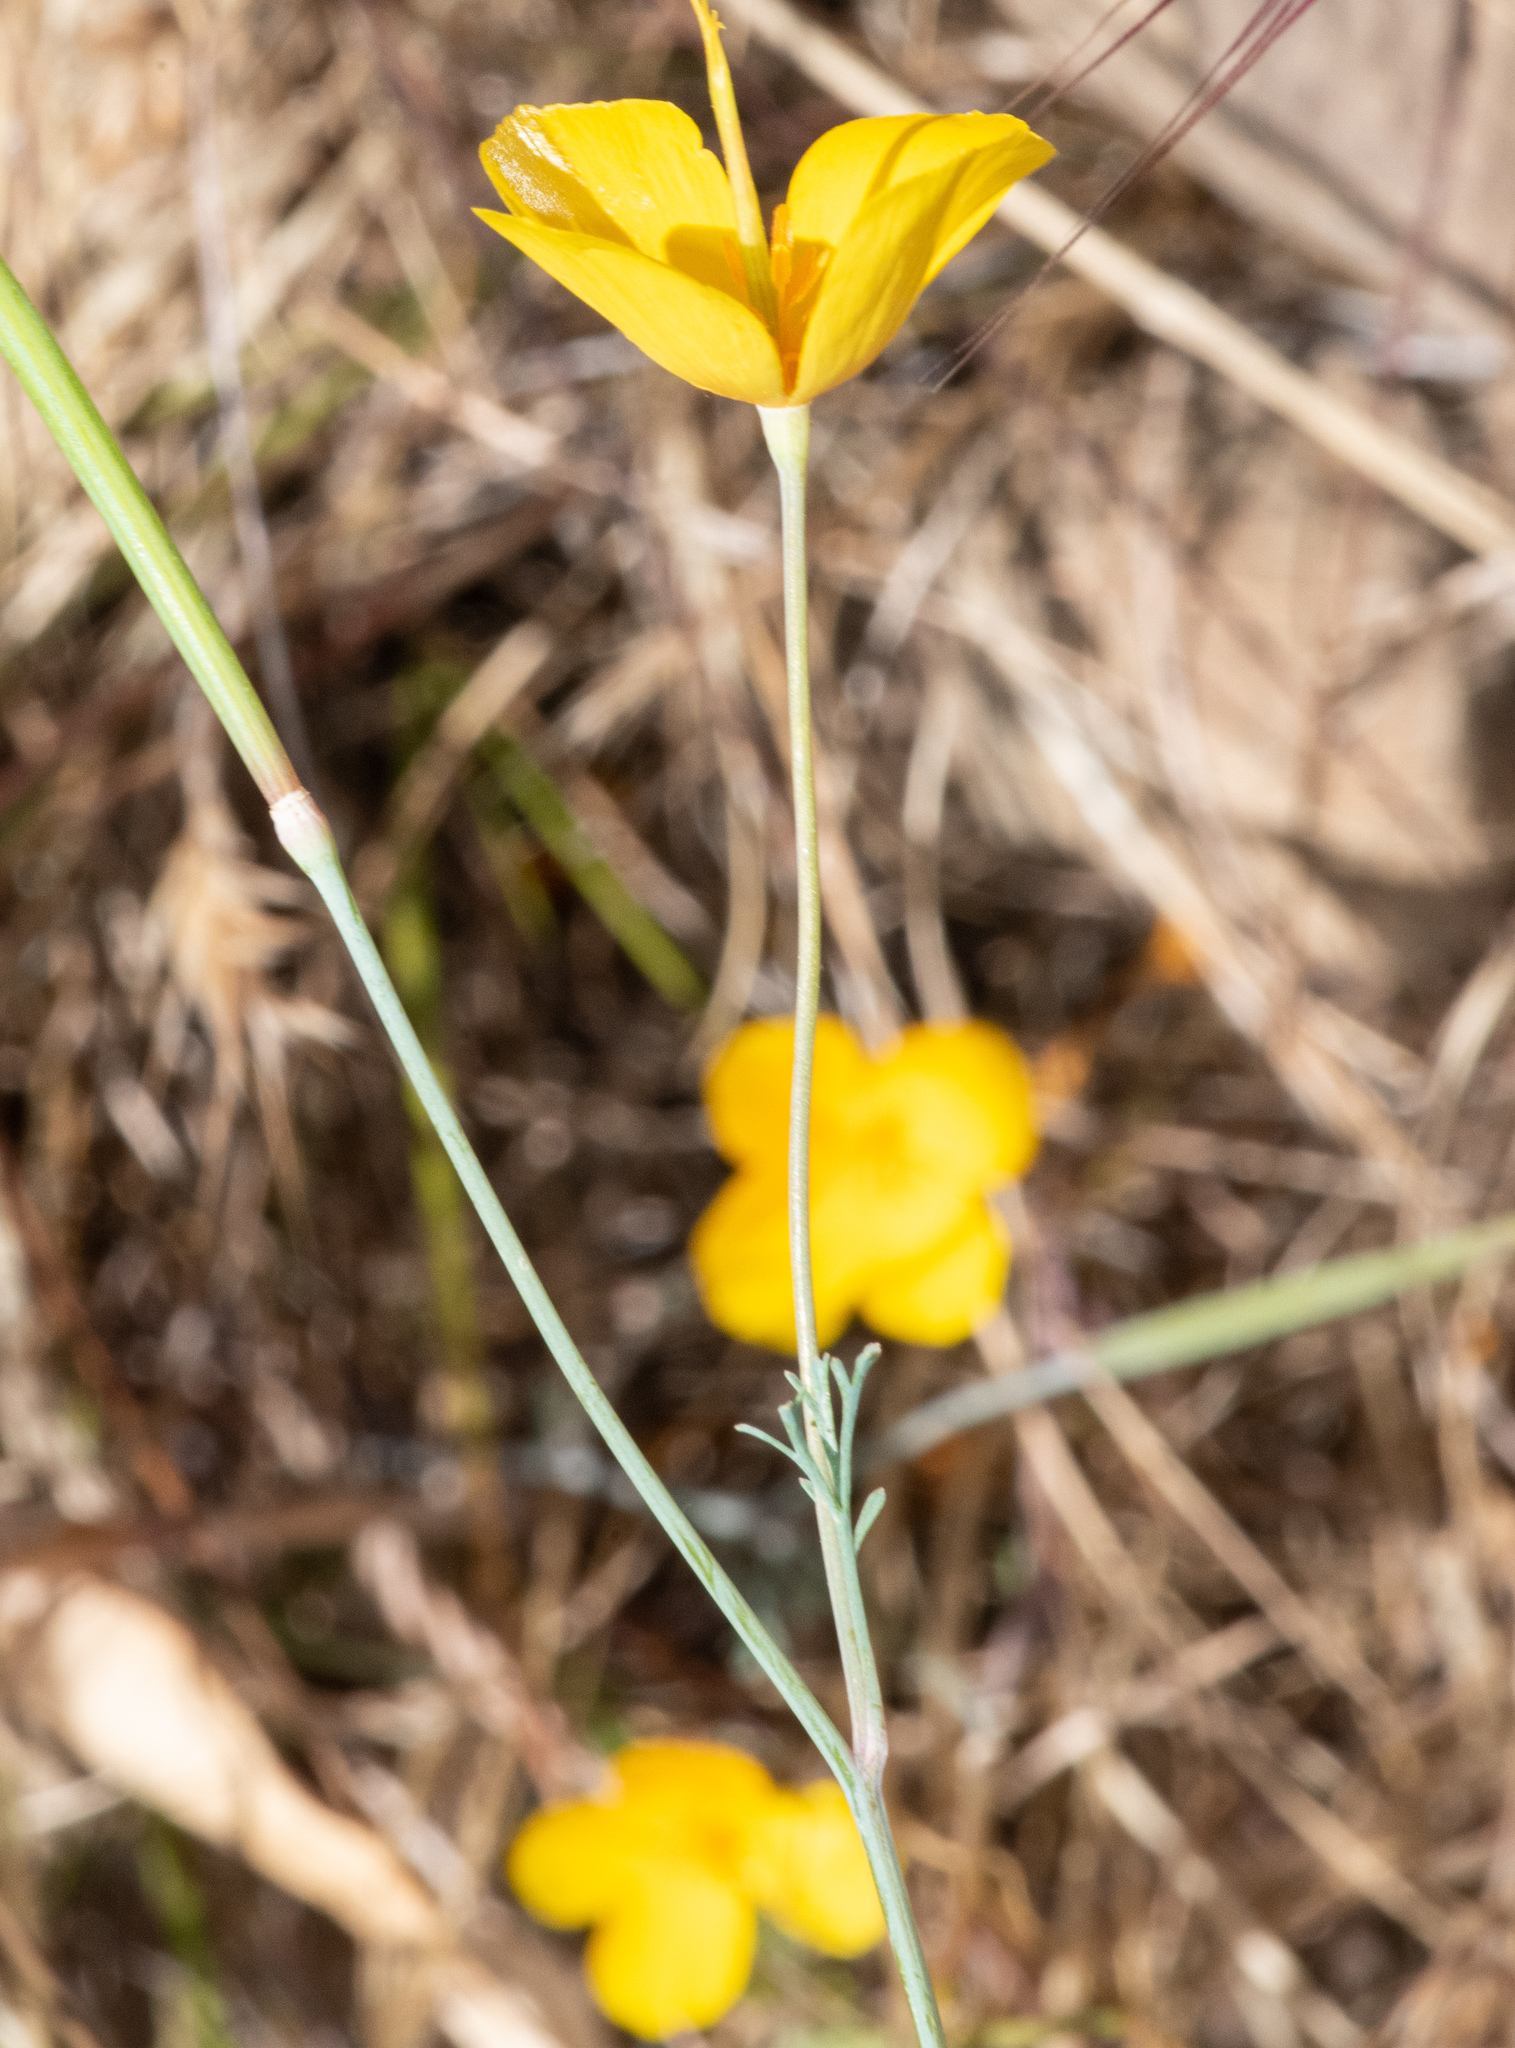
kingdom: Plantae
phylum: Tracheophyta
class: Magnoliopsida
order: Ranunculales
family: Papaveraceae
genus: Eschscholzia
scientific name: Eschscholzia caespitosa
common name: Tufted california-poppy
